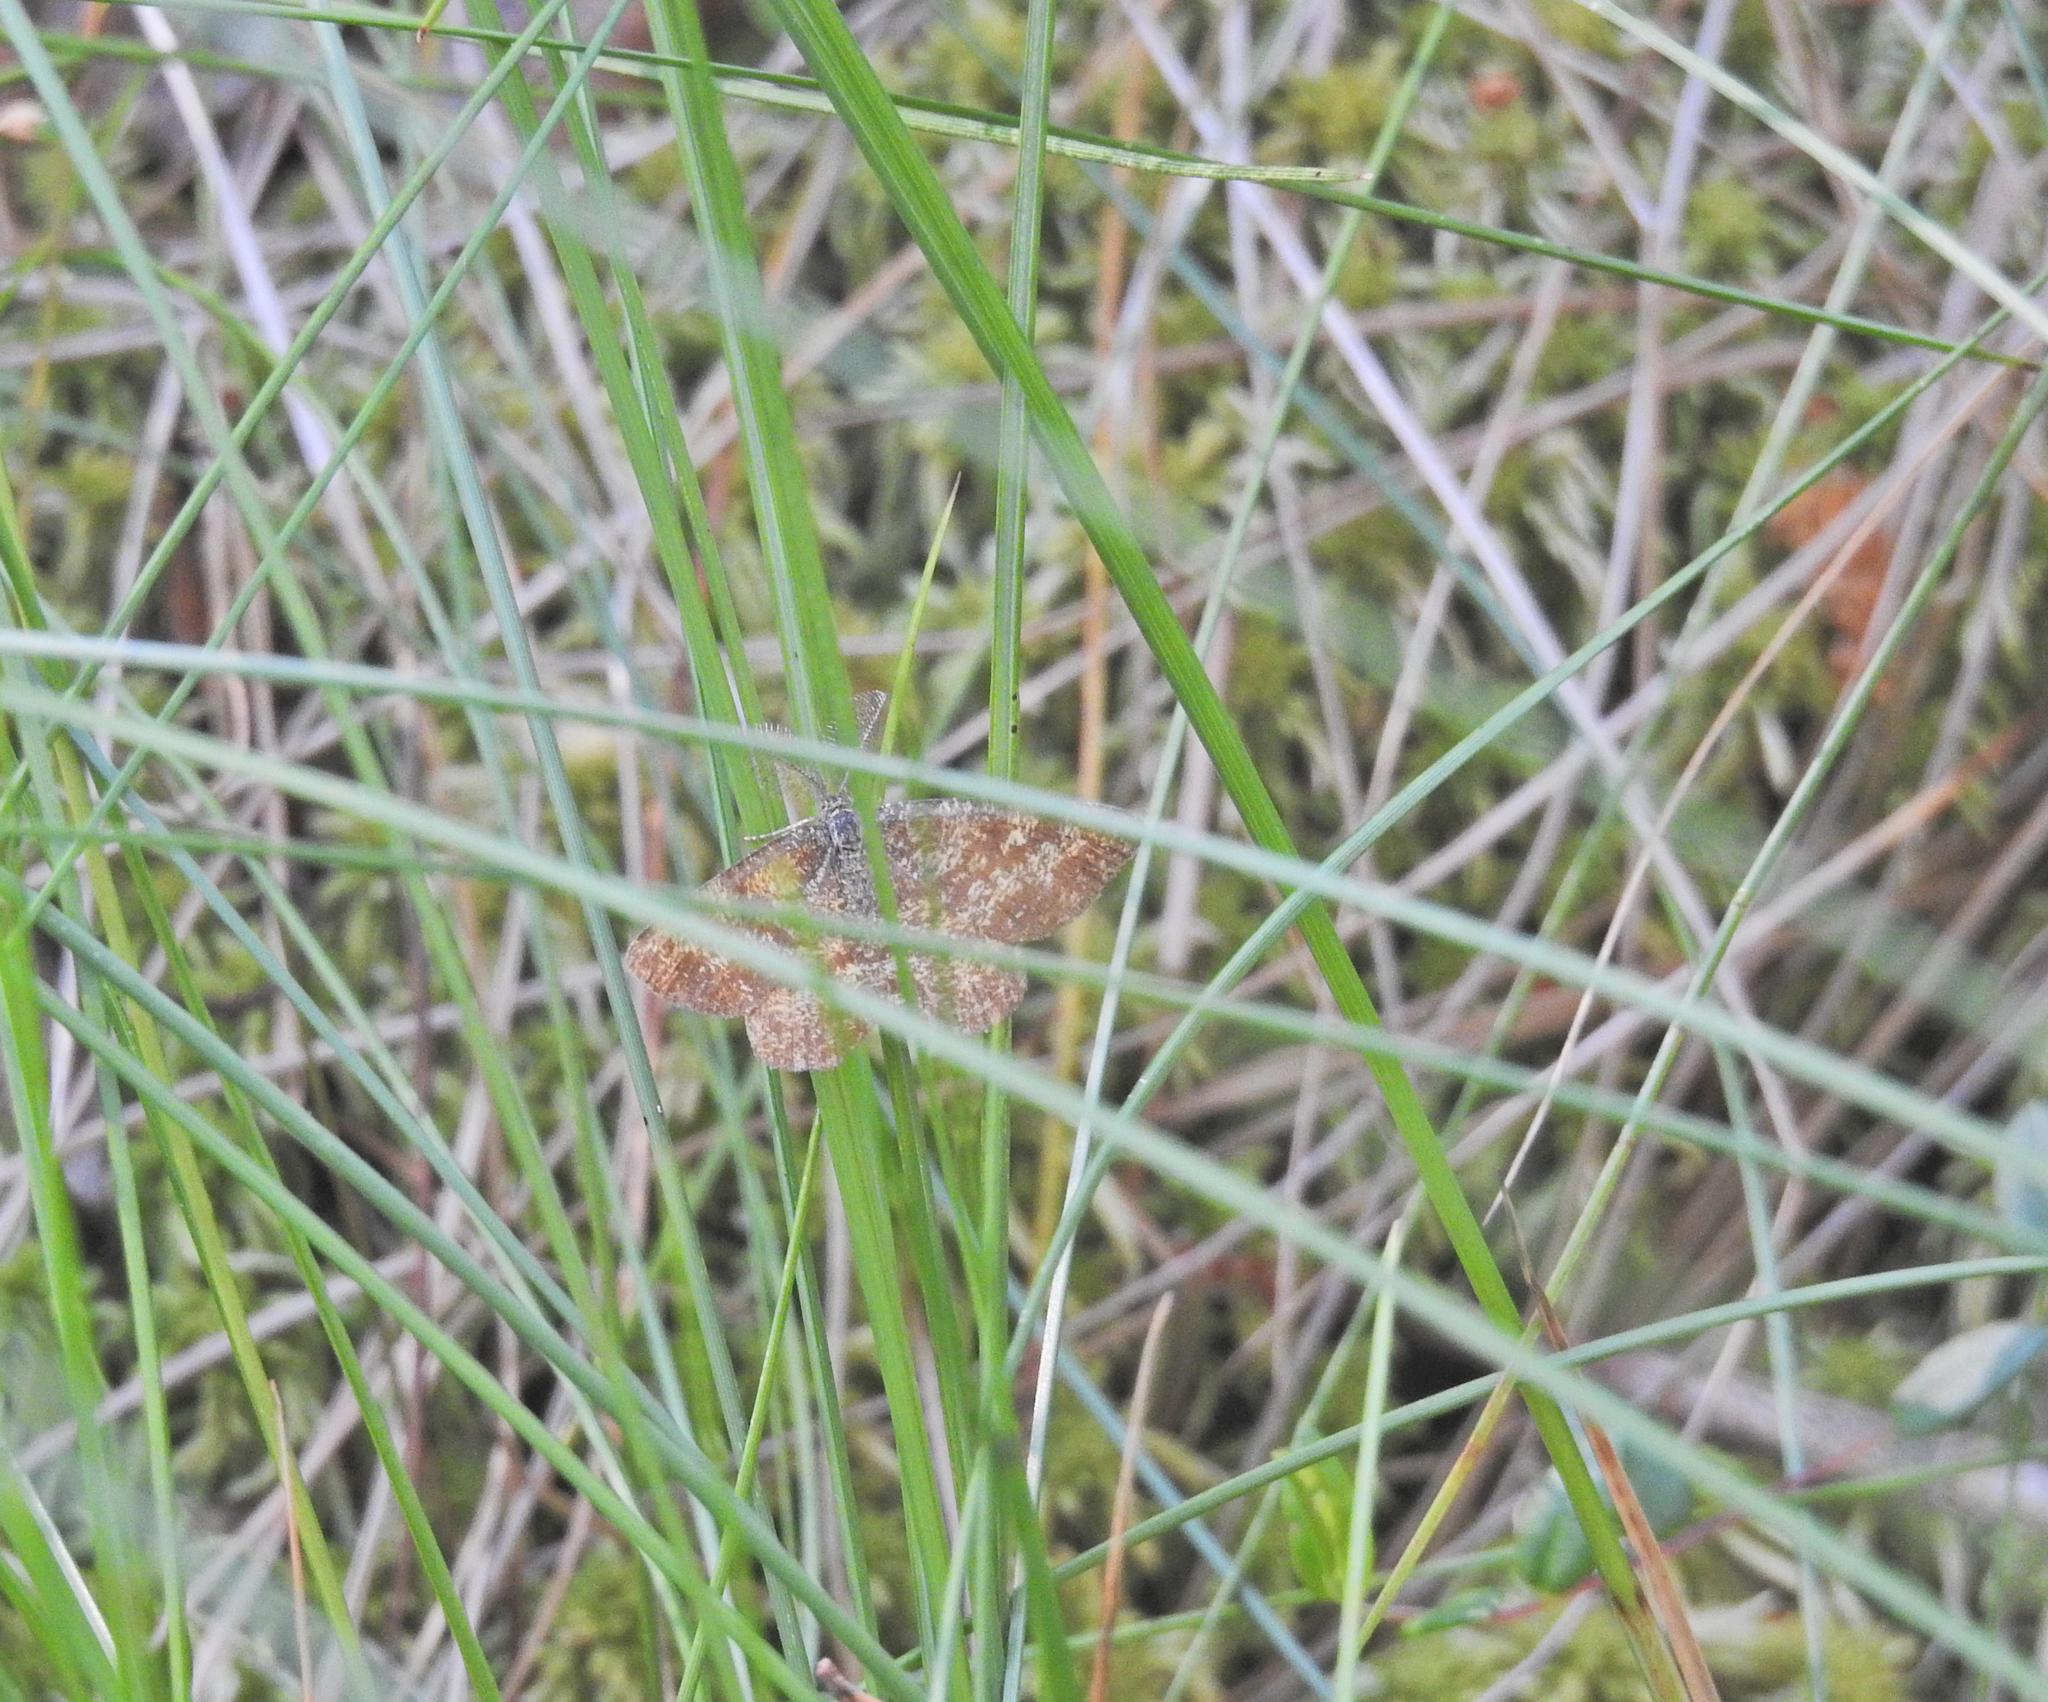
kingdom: Animalia
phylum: Arthropoda
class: Insecta
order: Lepidoptera
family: Geometridae
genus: Ematurga
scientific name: Ematurga atomaria
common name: Common heath
